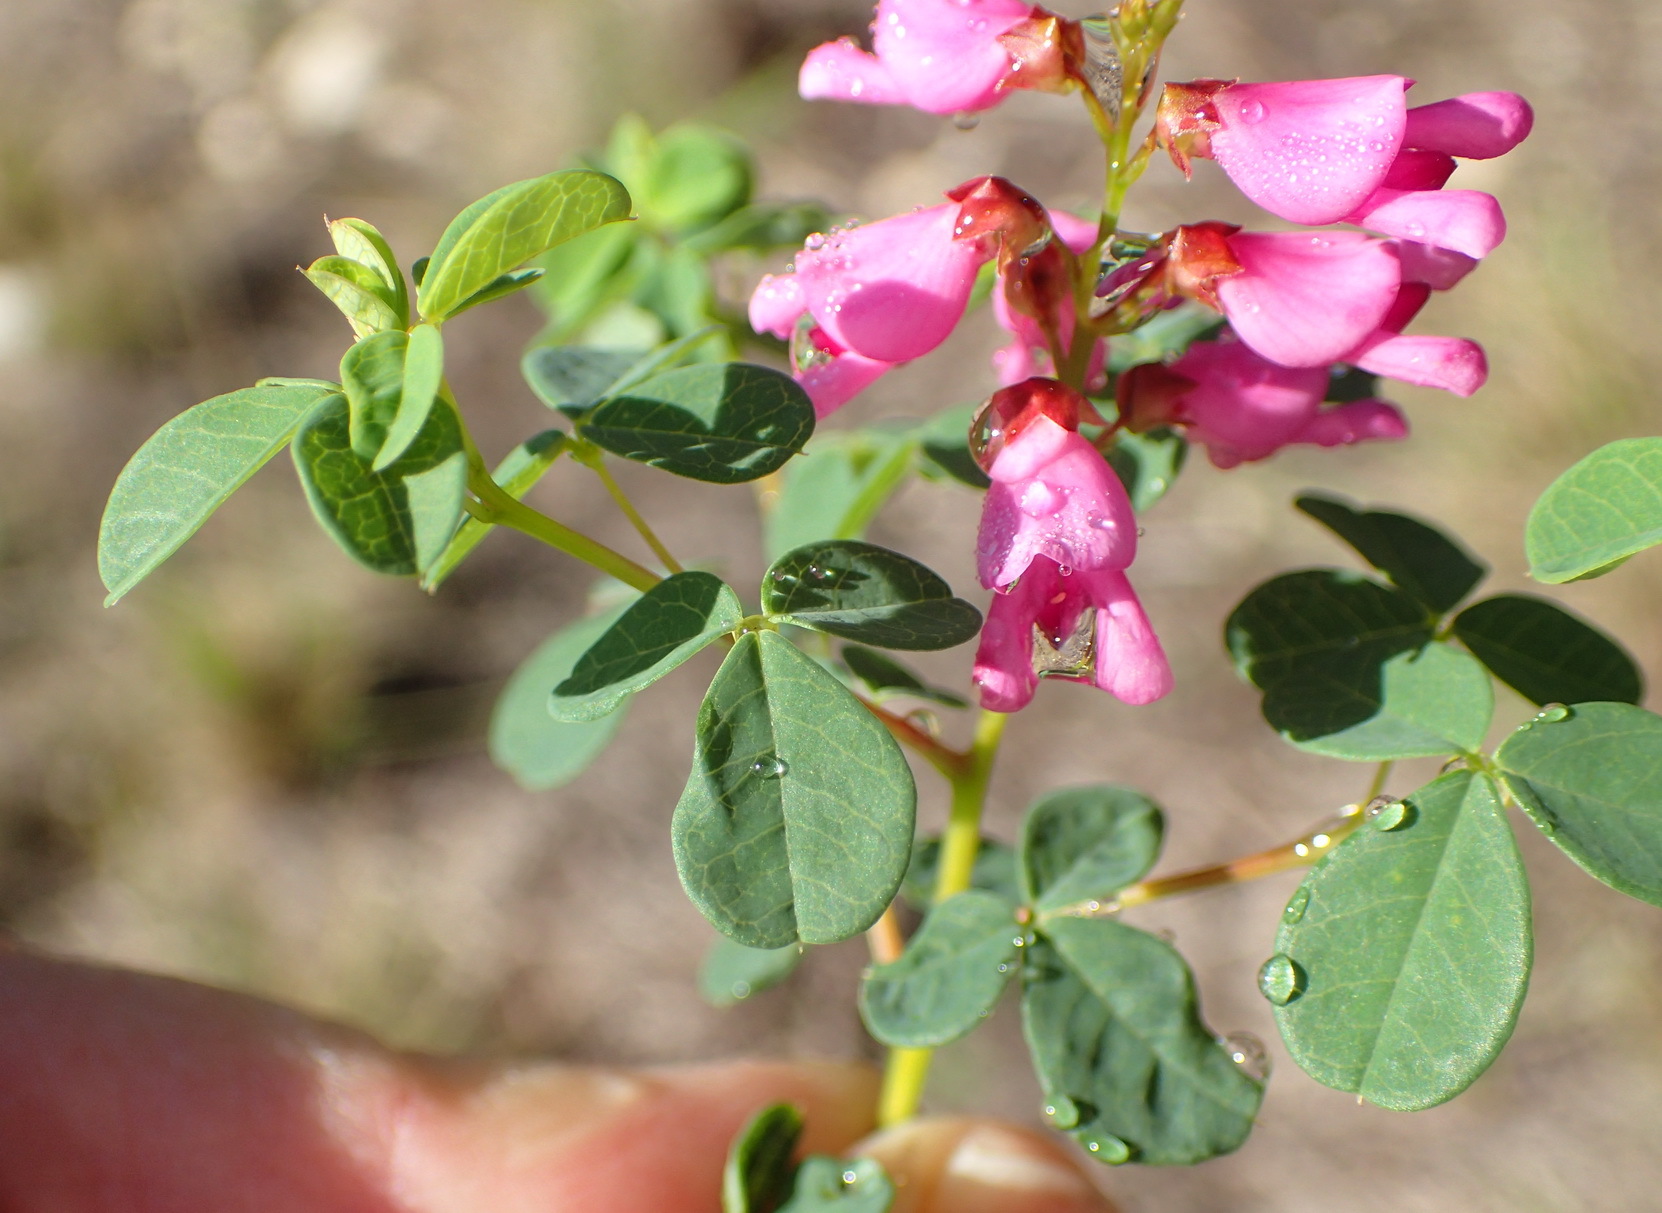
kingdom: Plantae
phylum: Tracheophyta
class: Magnoliopsida
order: Fabales
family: Fabaceae
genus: Hypocalyptus
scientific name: Hypocalyptus oxalidifolius
